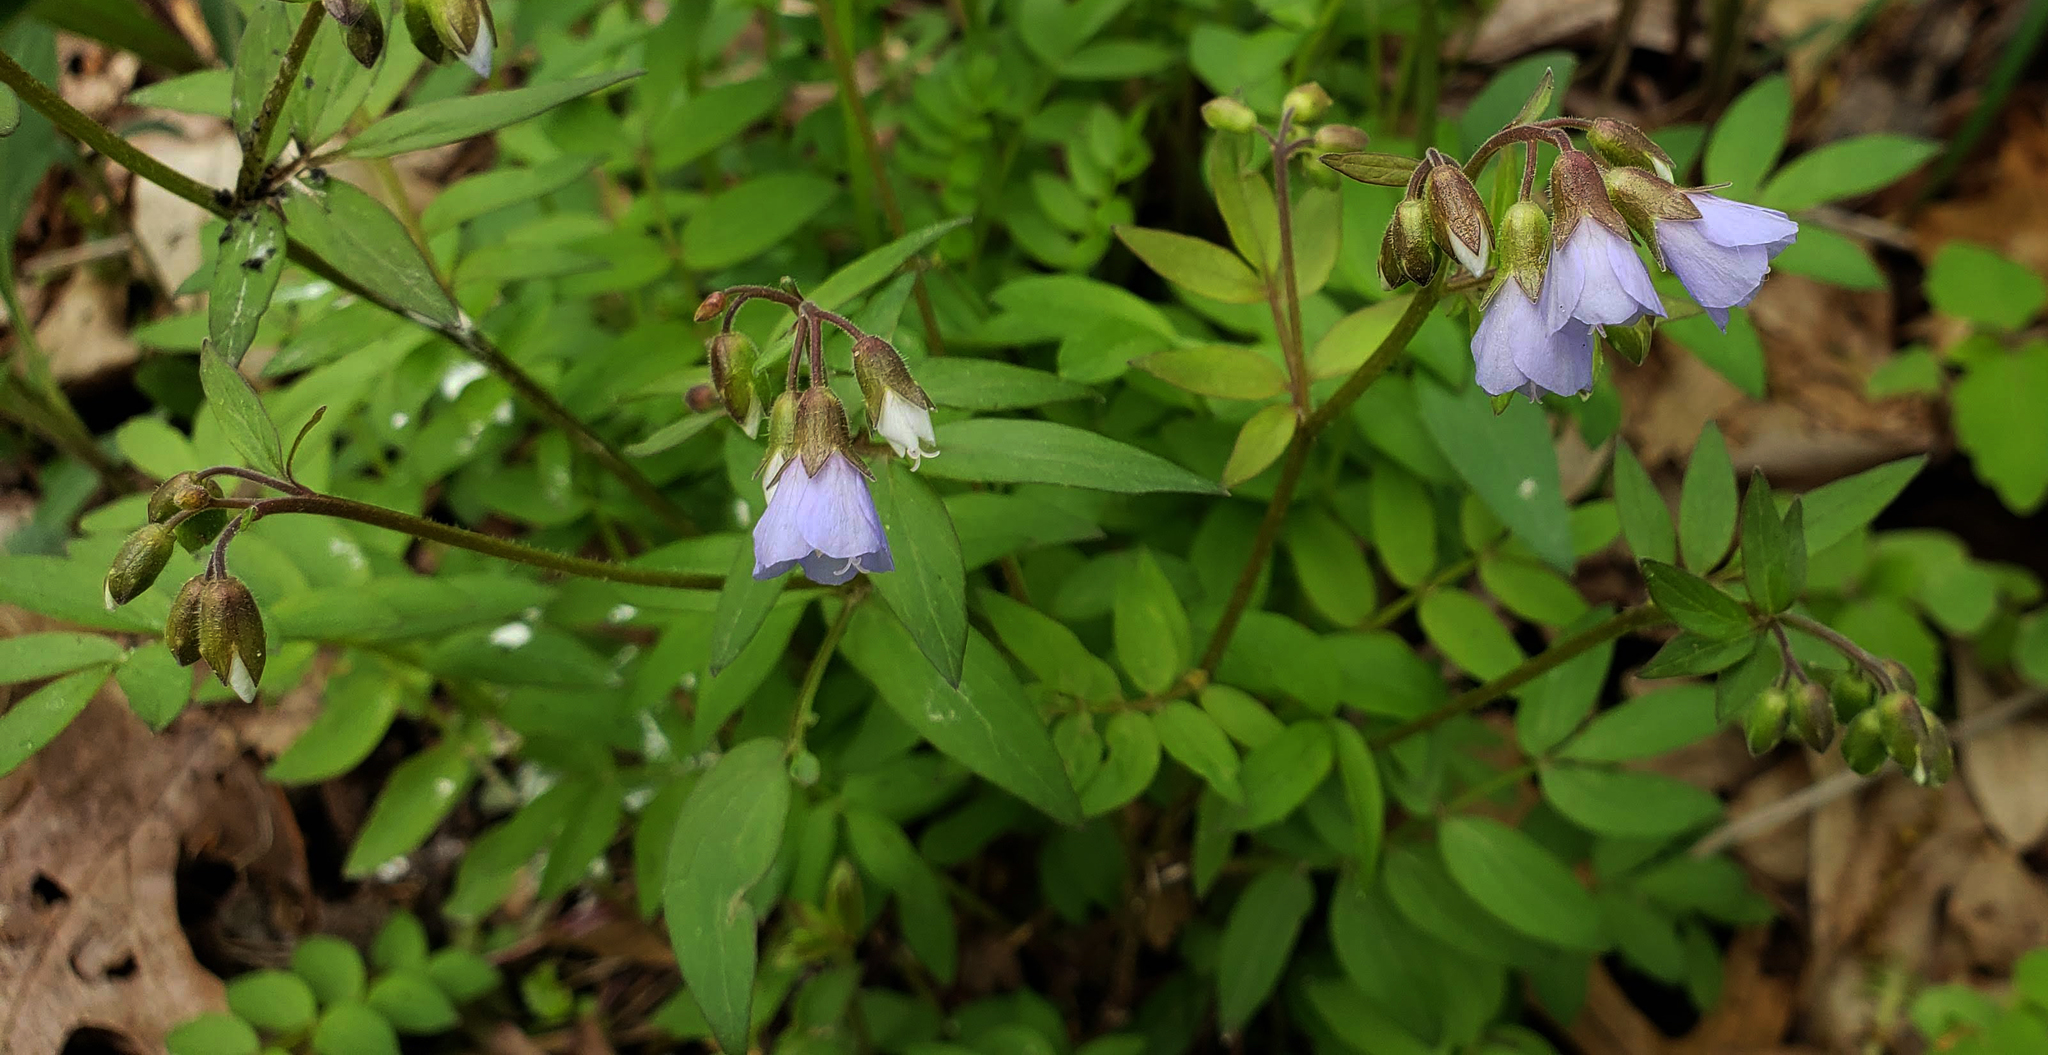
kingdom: Plantae
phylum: Tracheophyta
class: Magnoliopsida
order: Ericales
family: Polemoniaceae
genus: Polemonium
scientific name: Polemonium reptans
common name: Creeping jacob's-ladder
